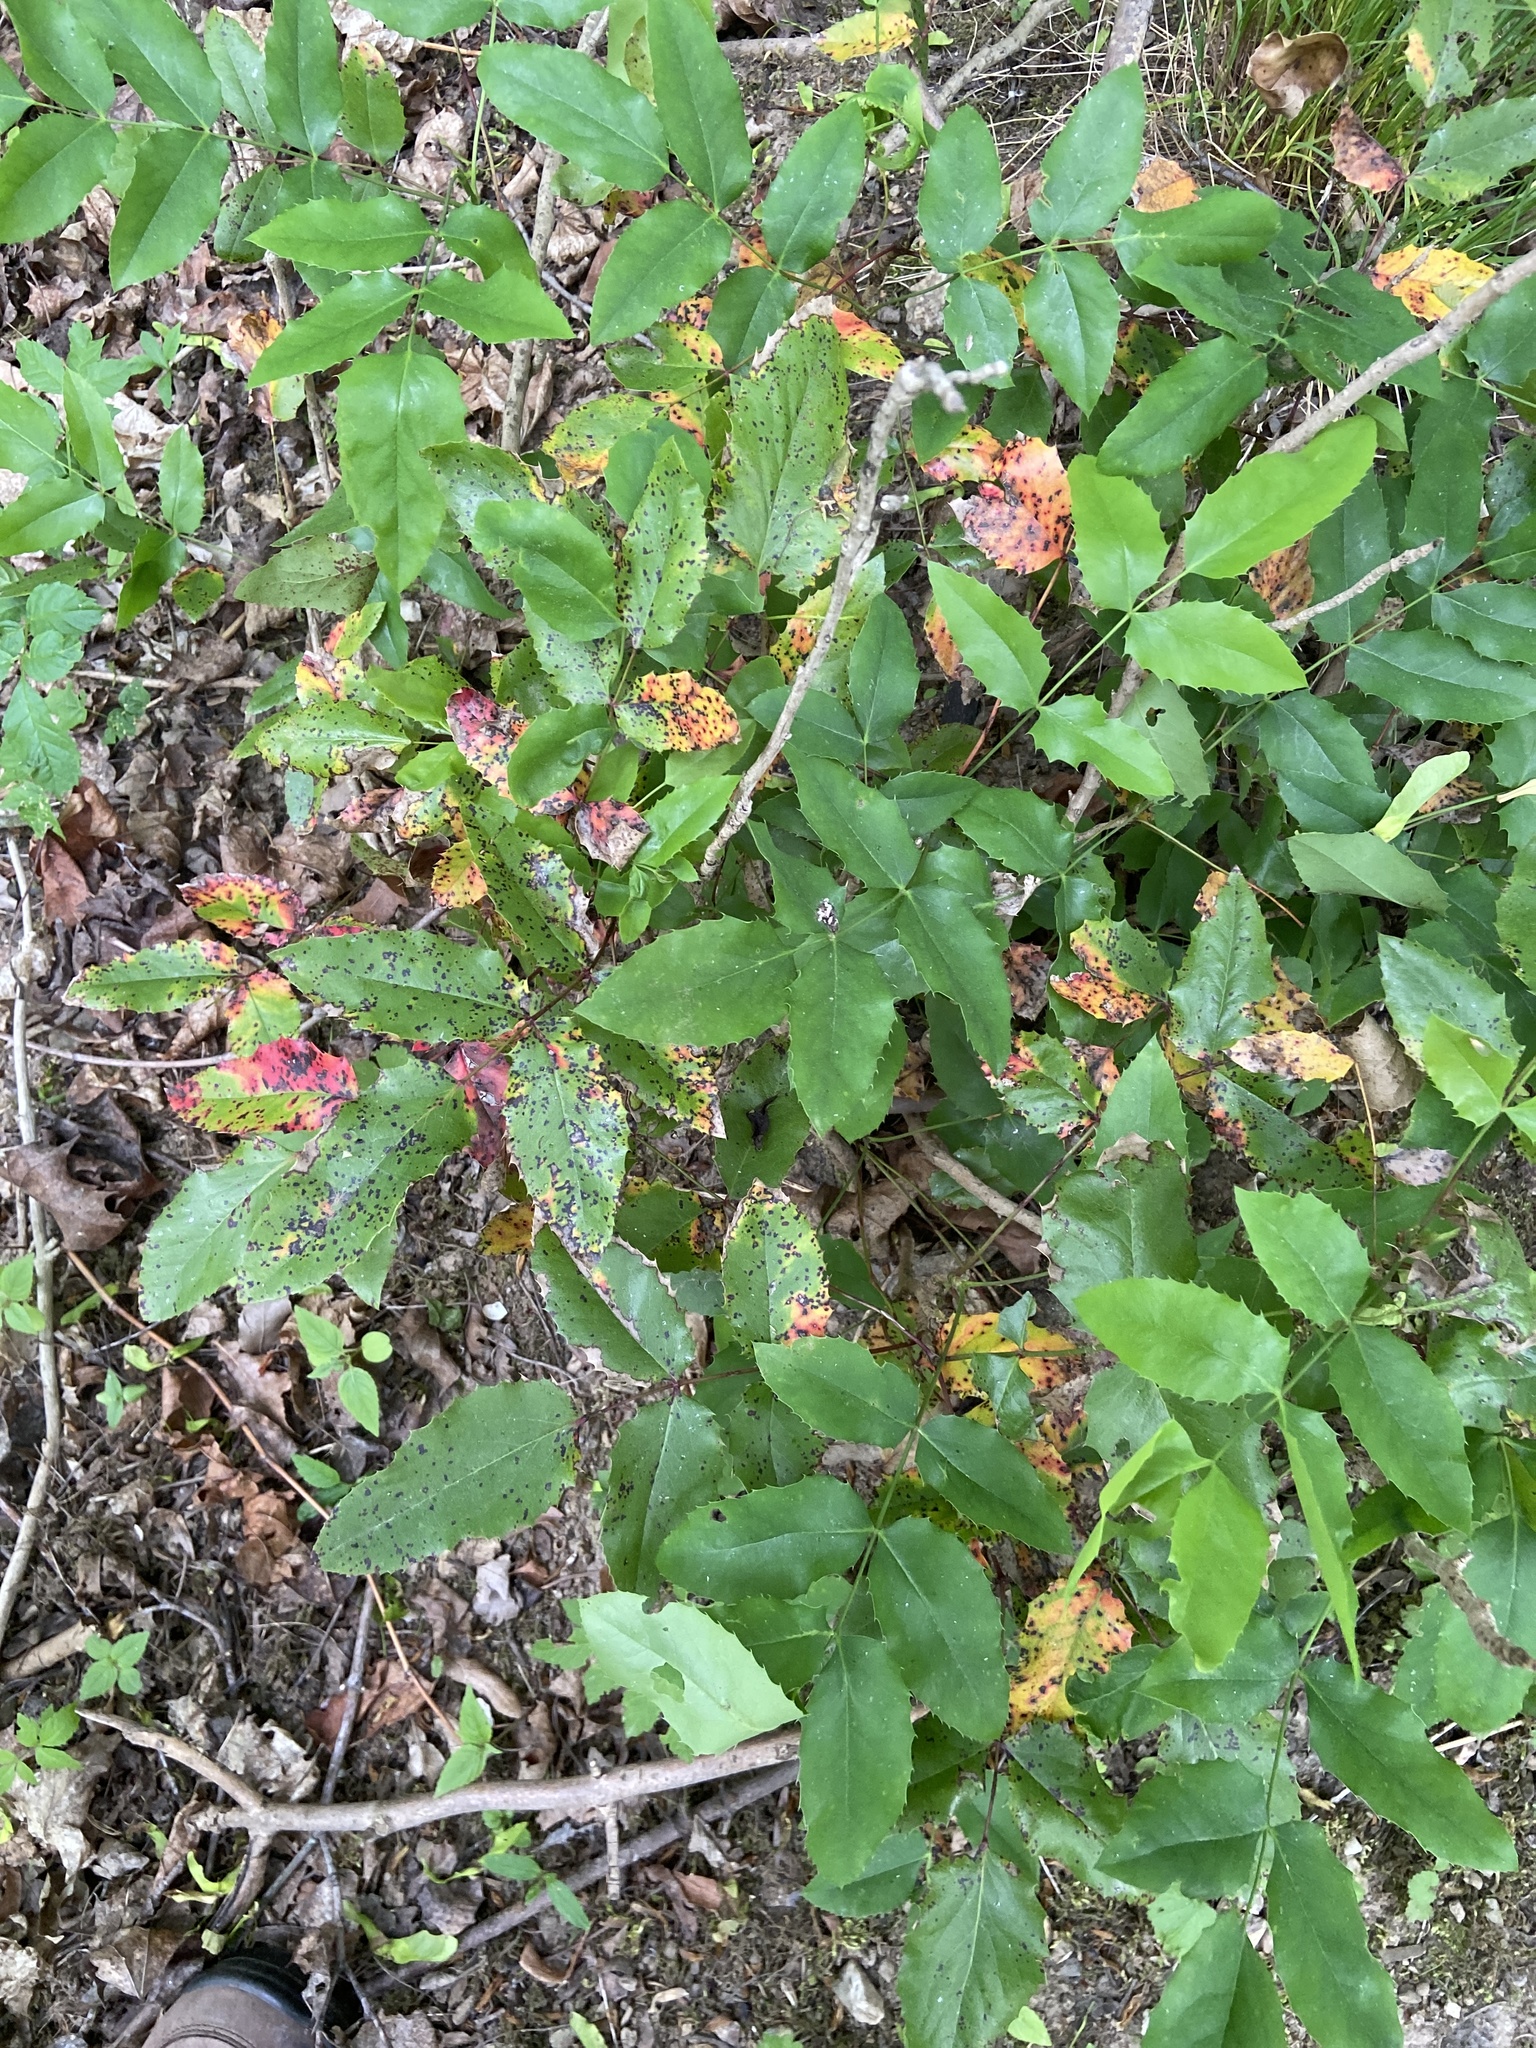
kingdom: Fungi
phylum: Basidiomycota
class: Pucciniomycetes
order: Pucciniales
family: Pucciniaceae
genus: Cumminsiella
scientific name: Cumminsiella mirabilissima
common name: Mahonia rust
